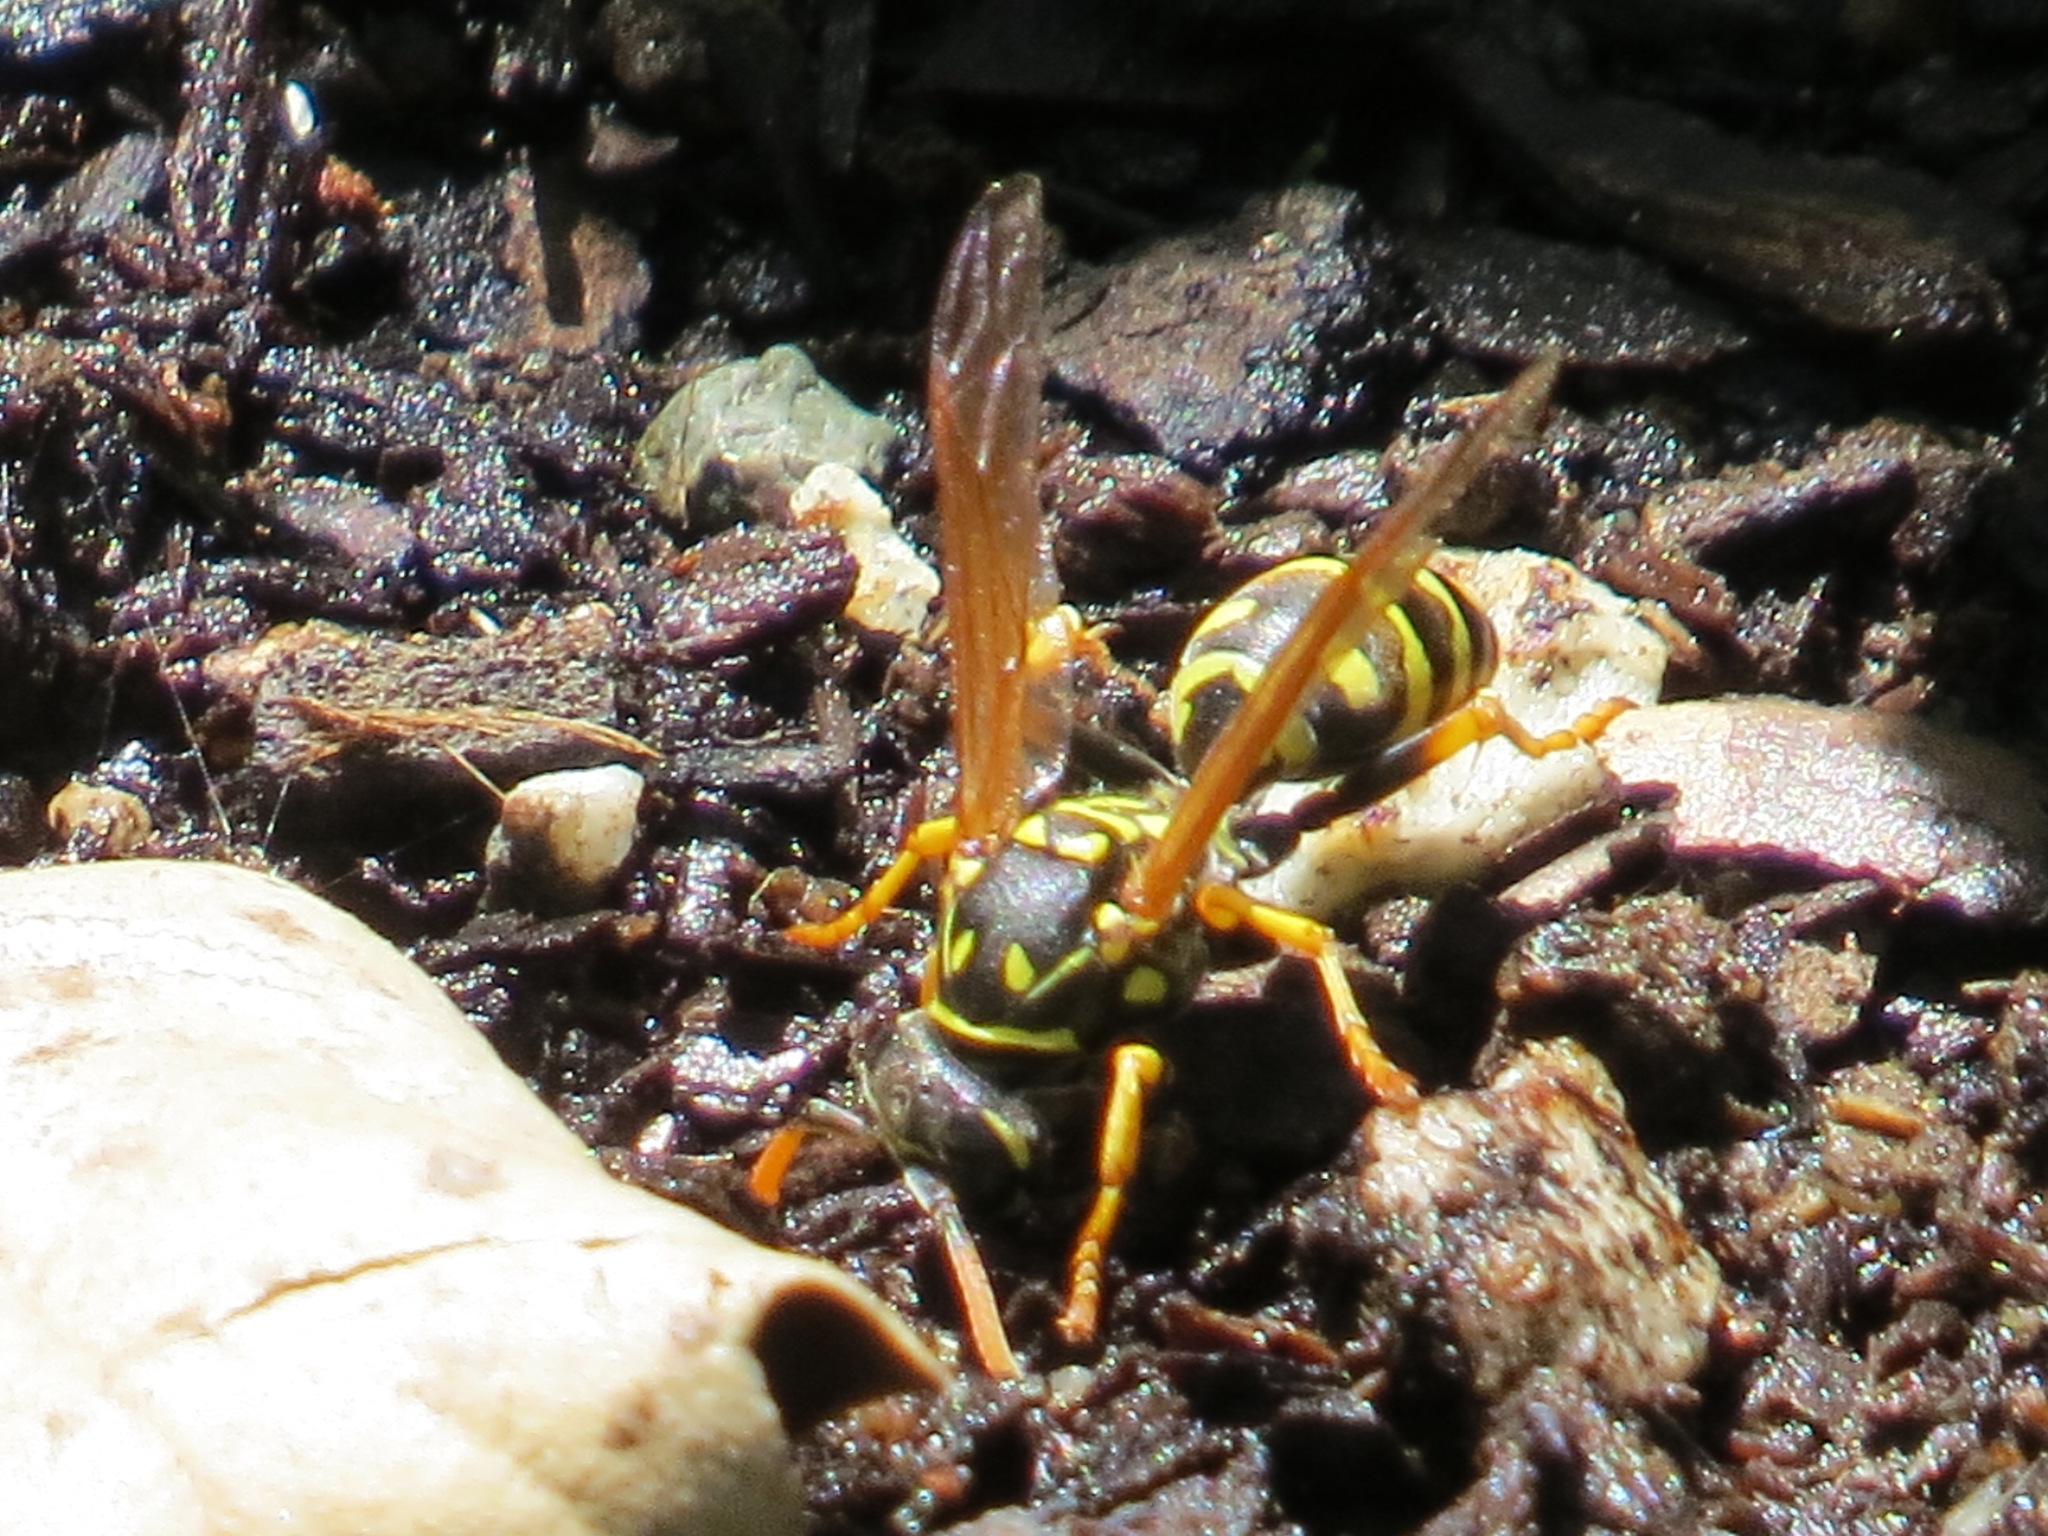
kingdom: Animalia
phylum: Arthropoda
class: Insecta
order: Hymenoptera
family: Eumenidae
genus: Polistes
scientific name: Polistes dominula
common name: Paper wasp
